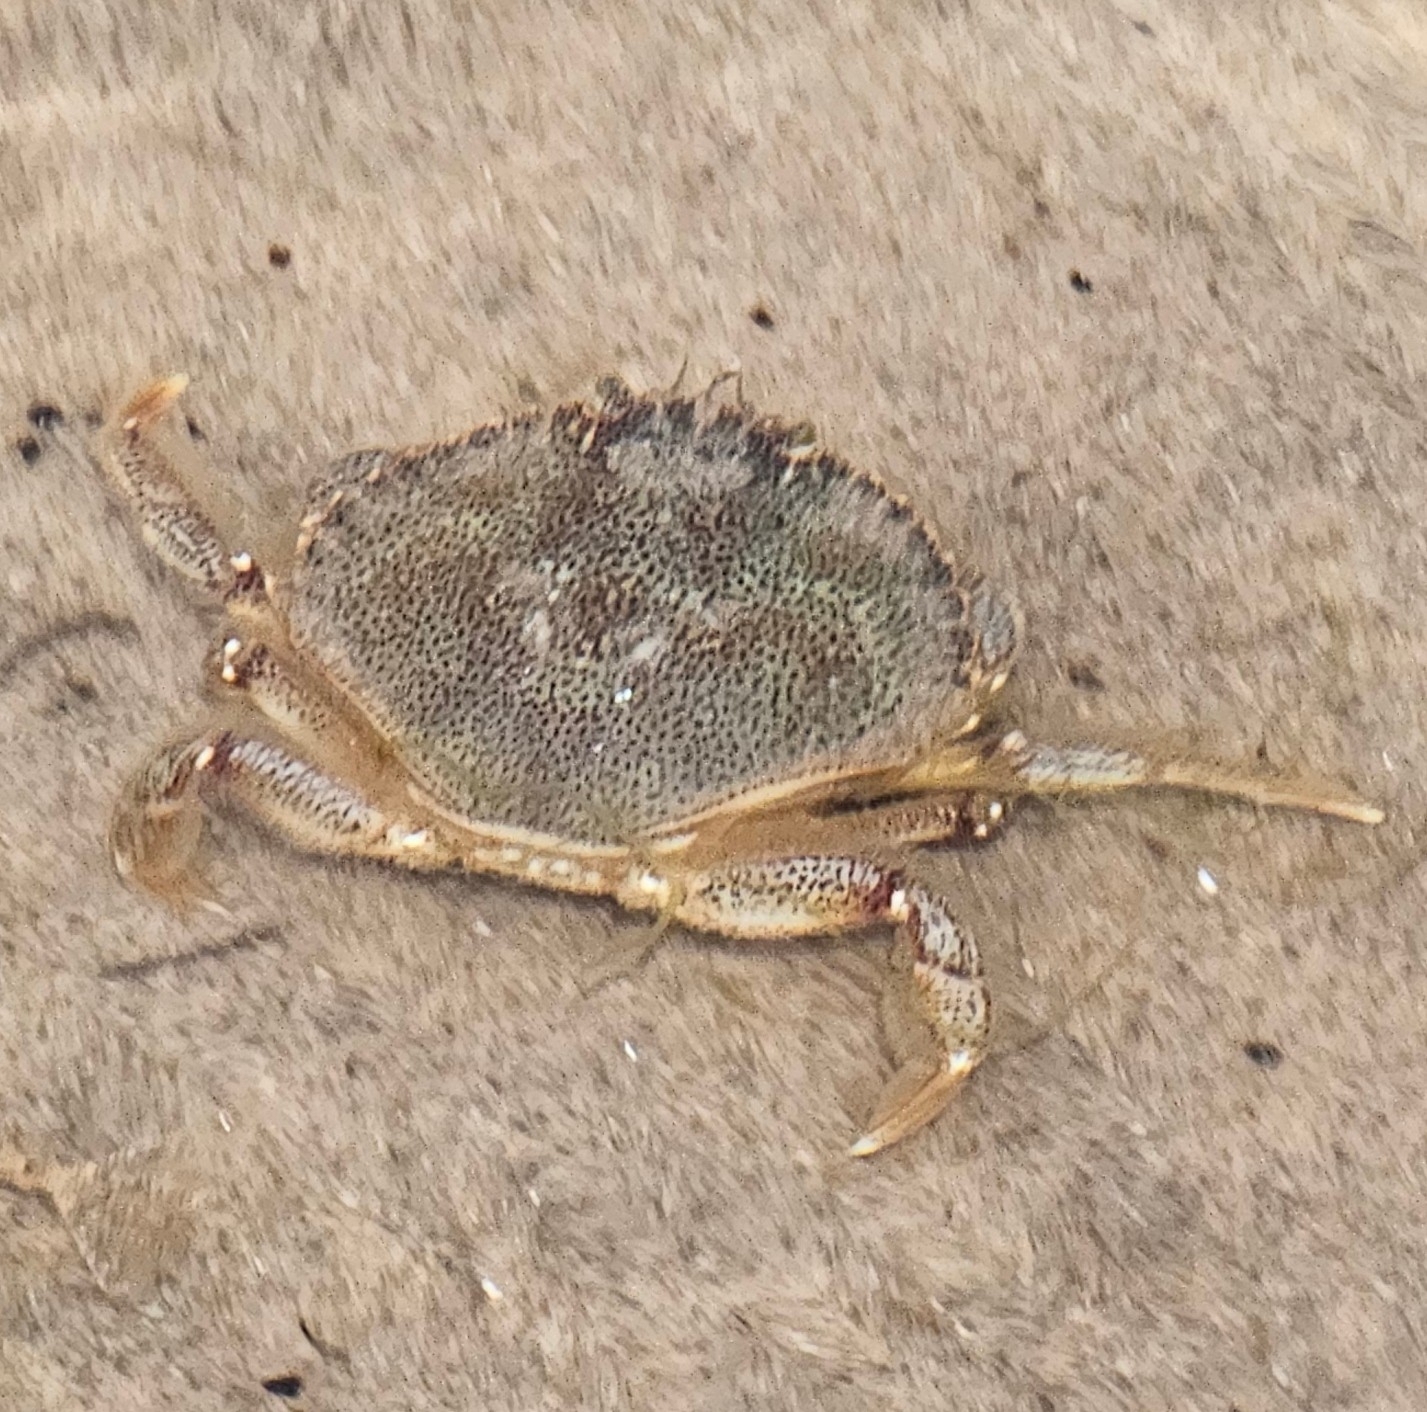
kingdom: Animalia
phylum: Arthropoda
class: Malacostraca
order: Decapoda
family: Cancridae
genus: Cancer
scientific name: Cancer irroratus
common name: Atlantic rock crab
